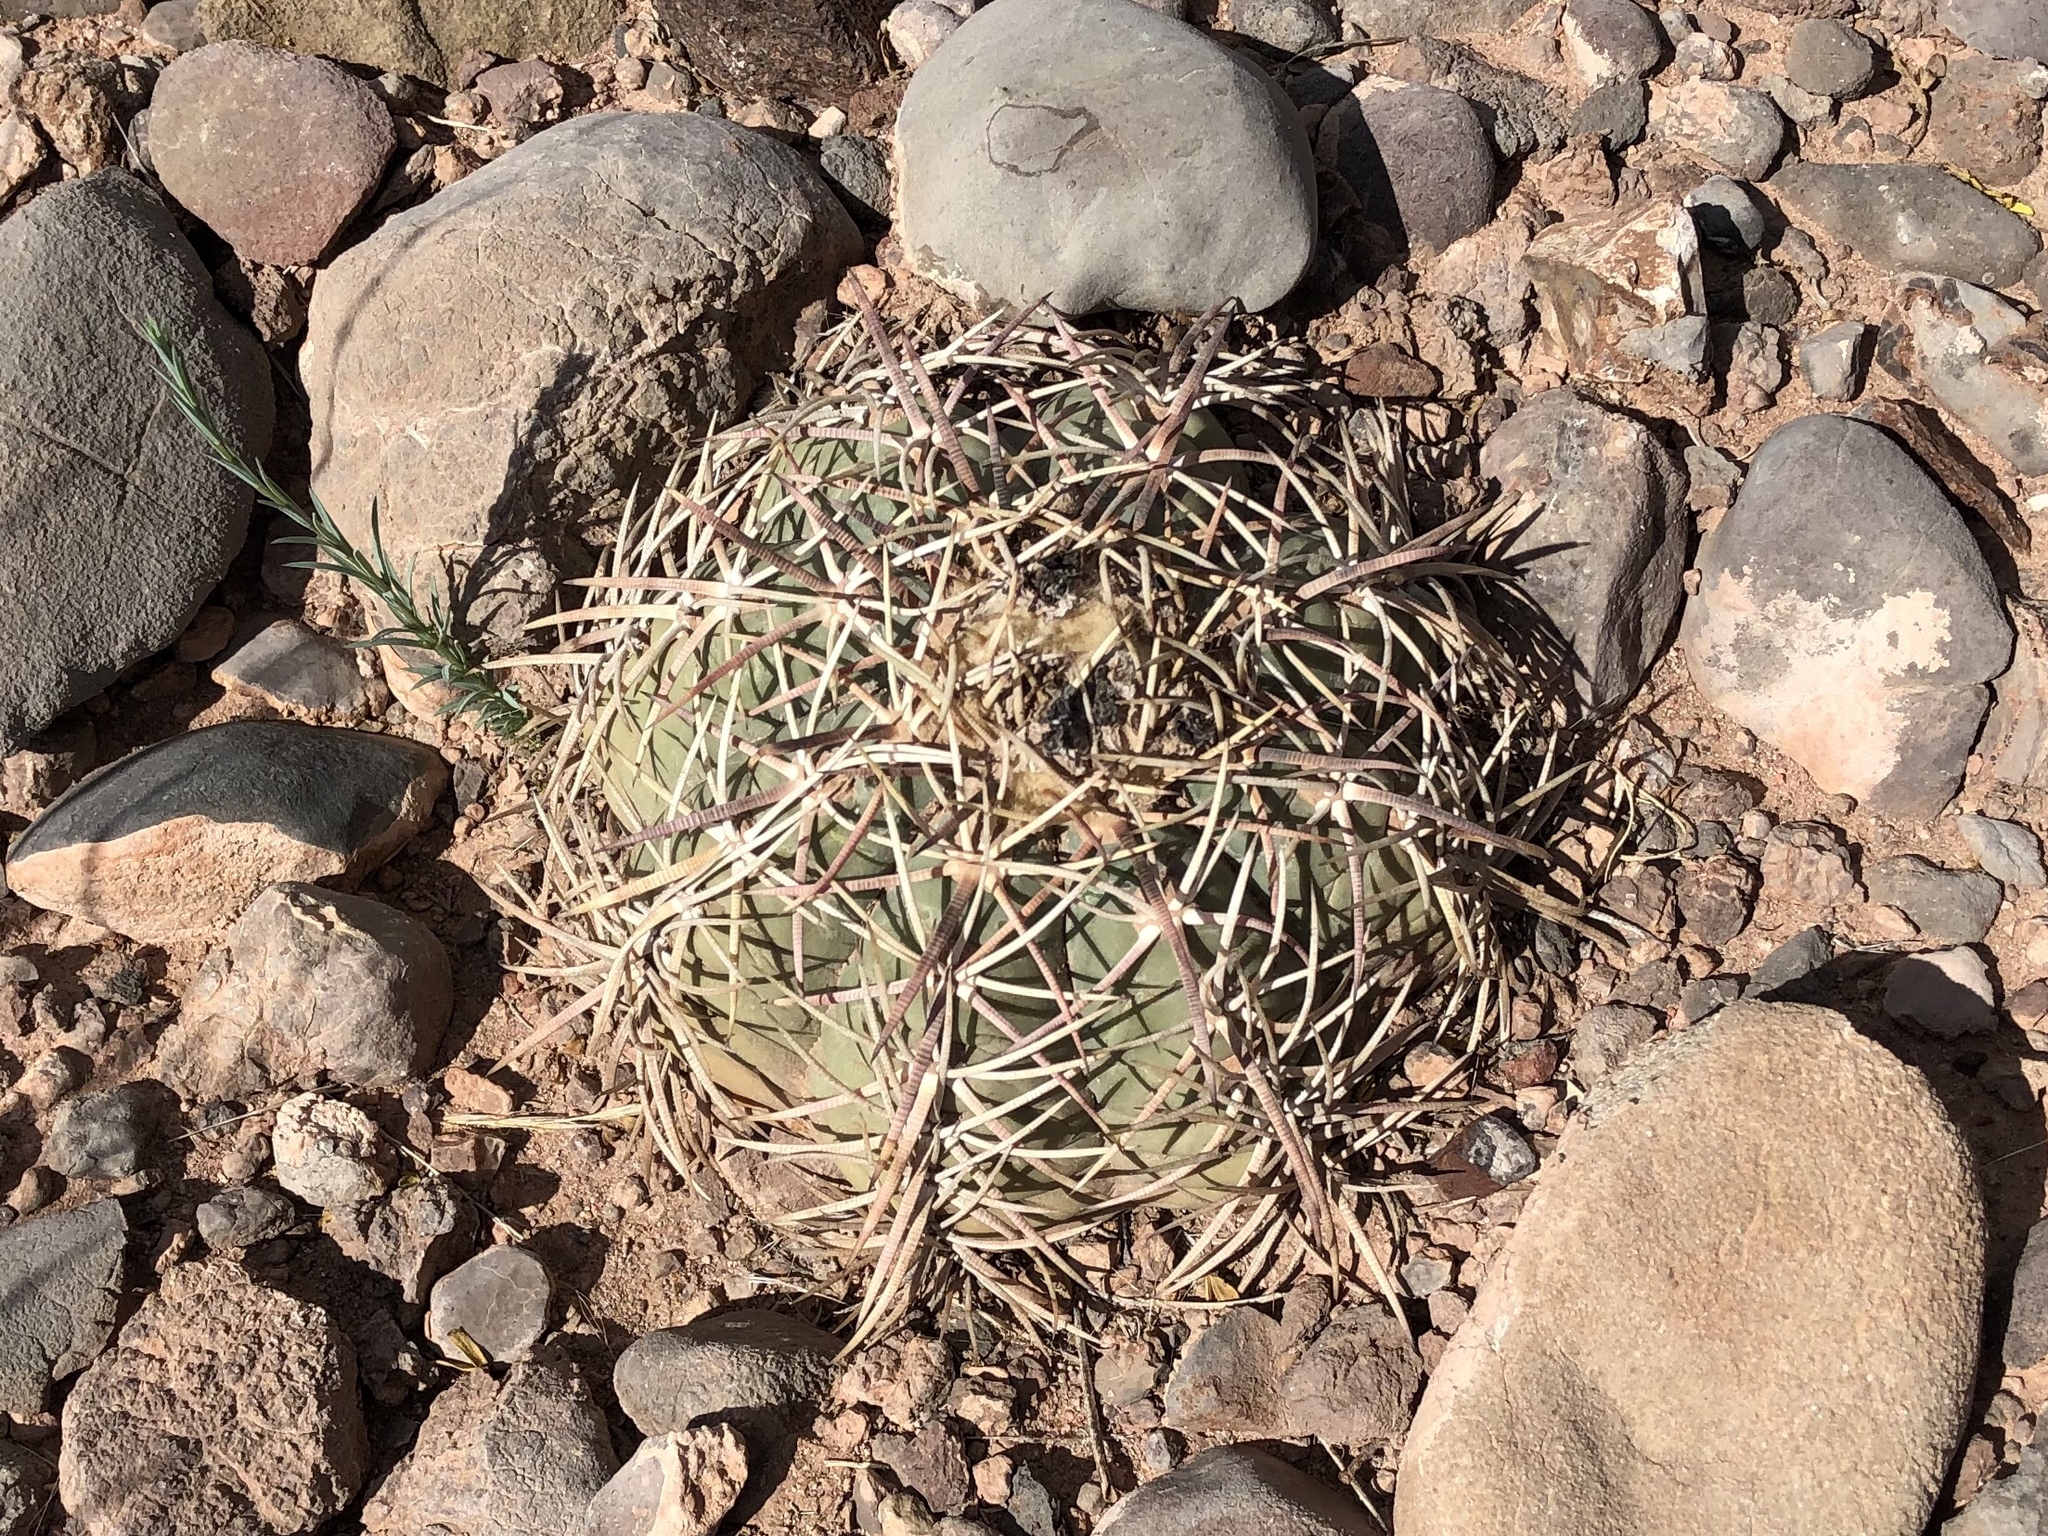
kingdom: Plantae
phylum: Tracheophyta
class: Magnoliopsida
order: Caryophyllales
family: Cactaceae
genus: Echinocactus
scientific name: Echinocactus horizonthalonius
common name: Devilshead
